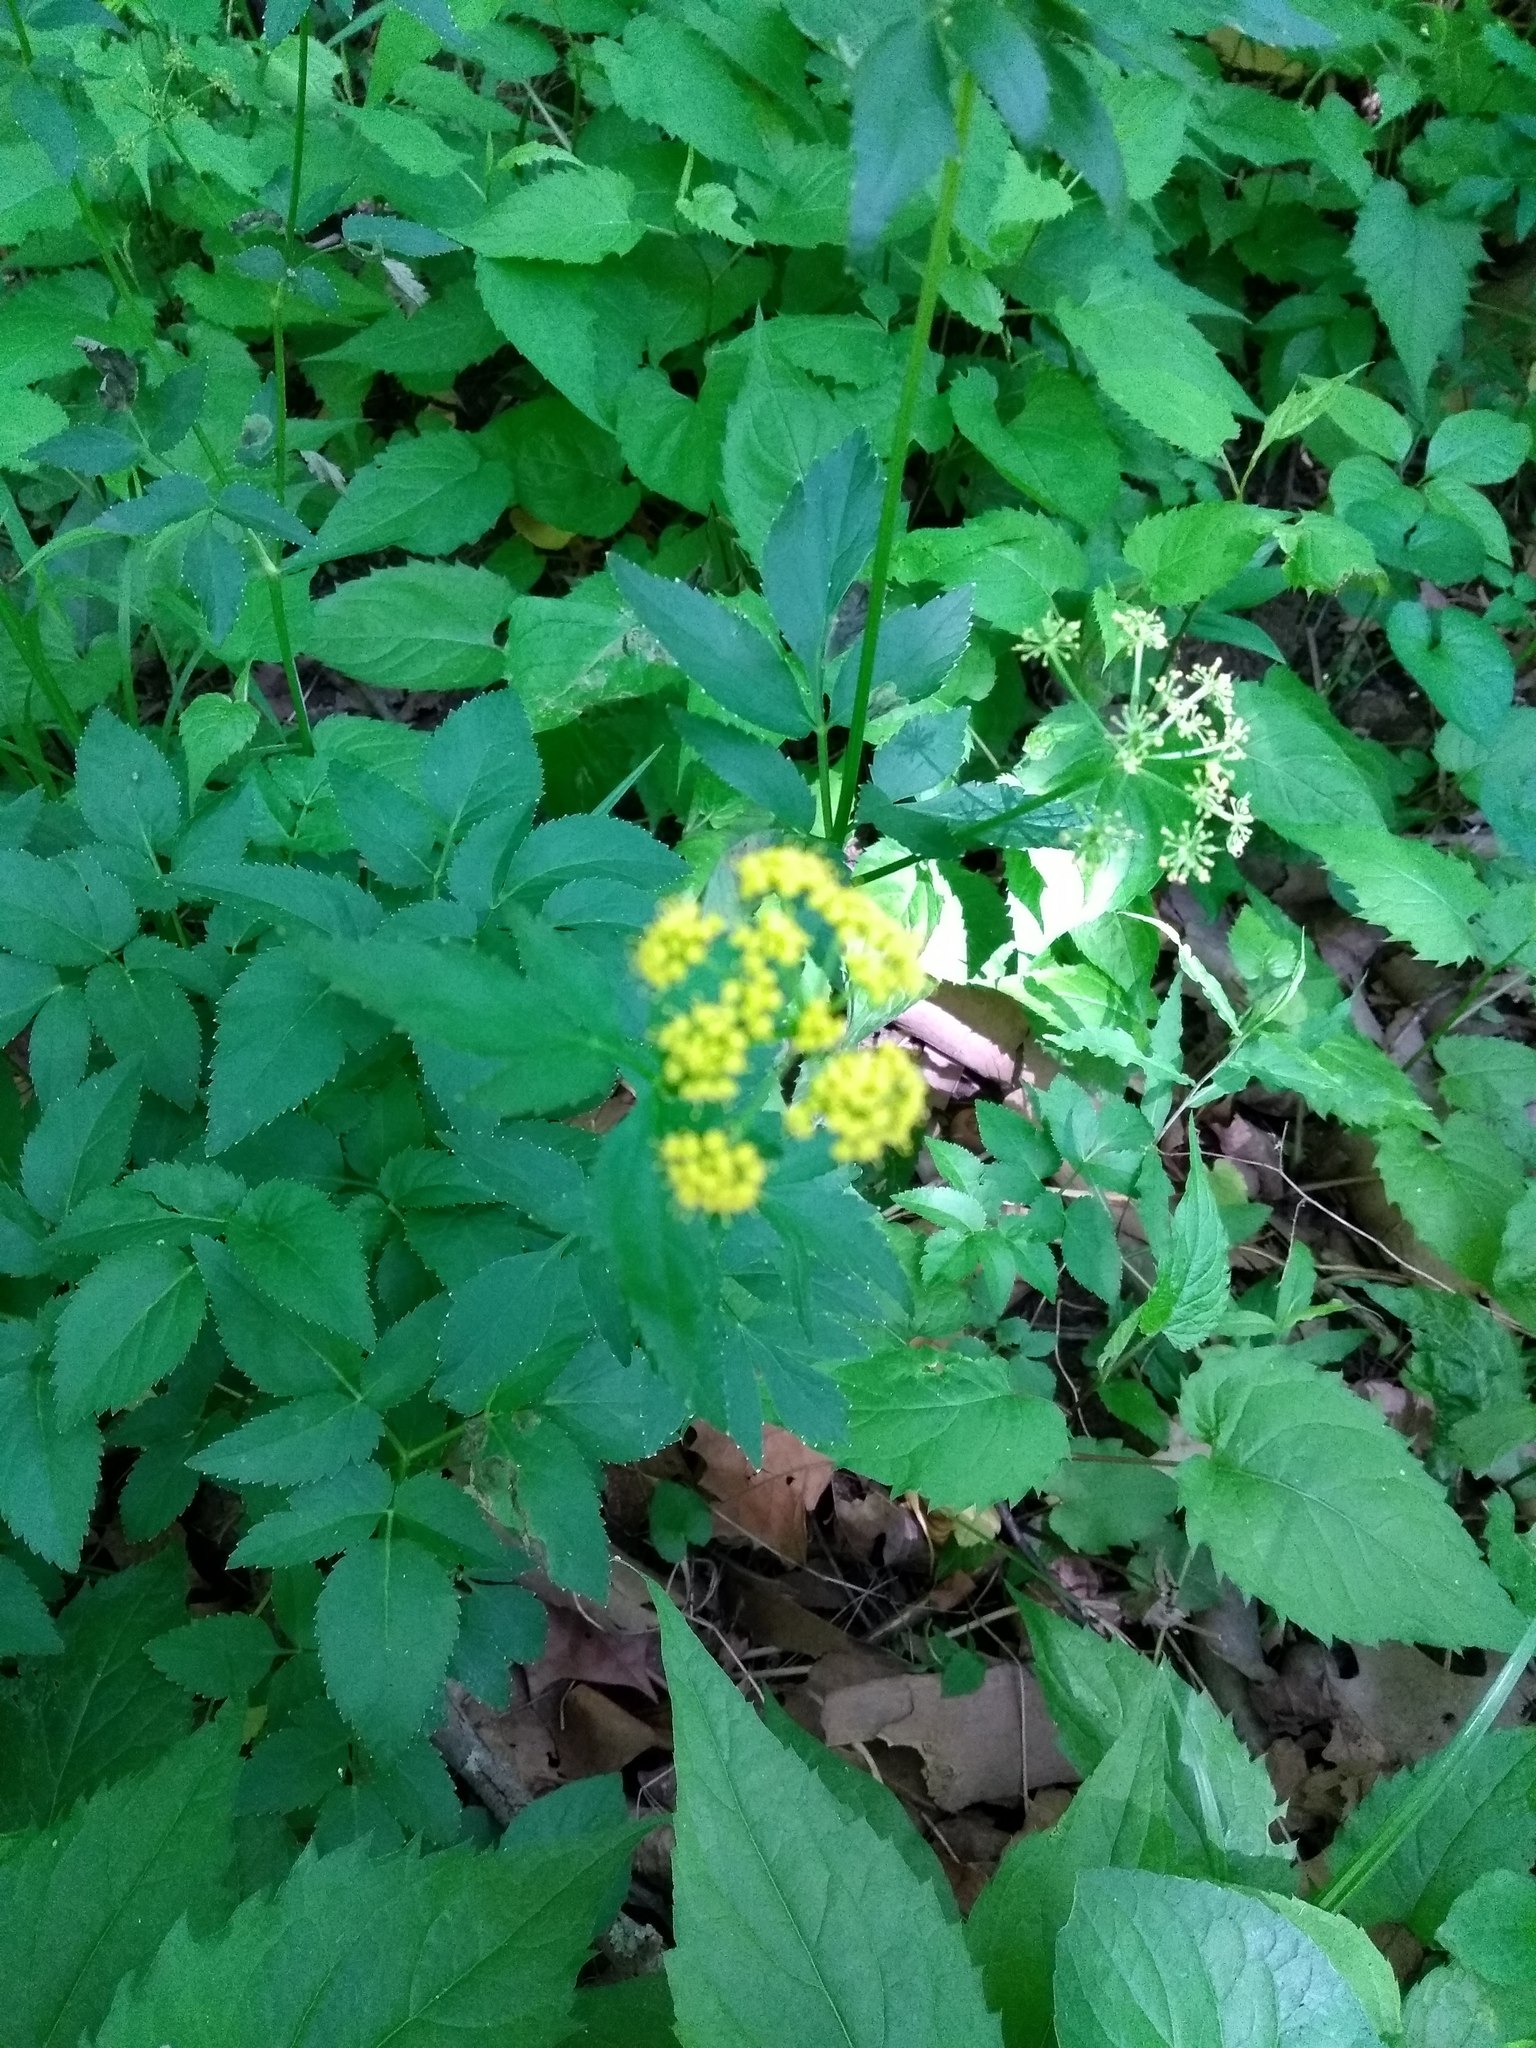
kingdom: Plantae
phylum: Tracheophyta
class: Magnoliopsida
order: Apiales
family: Apiaceae
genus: Zizia
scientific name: Zizia aurea
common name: Golden alexanders
